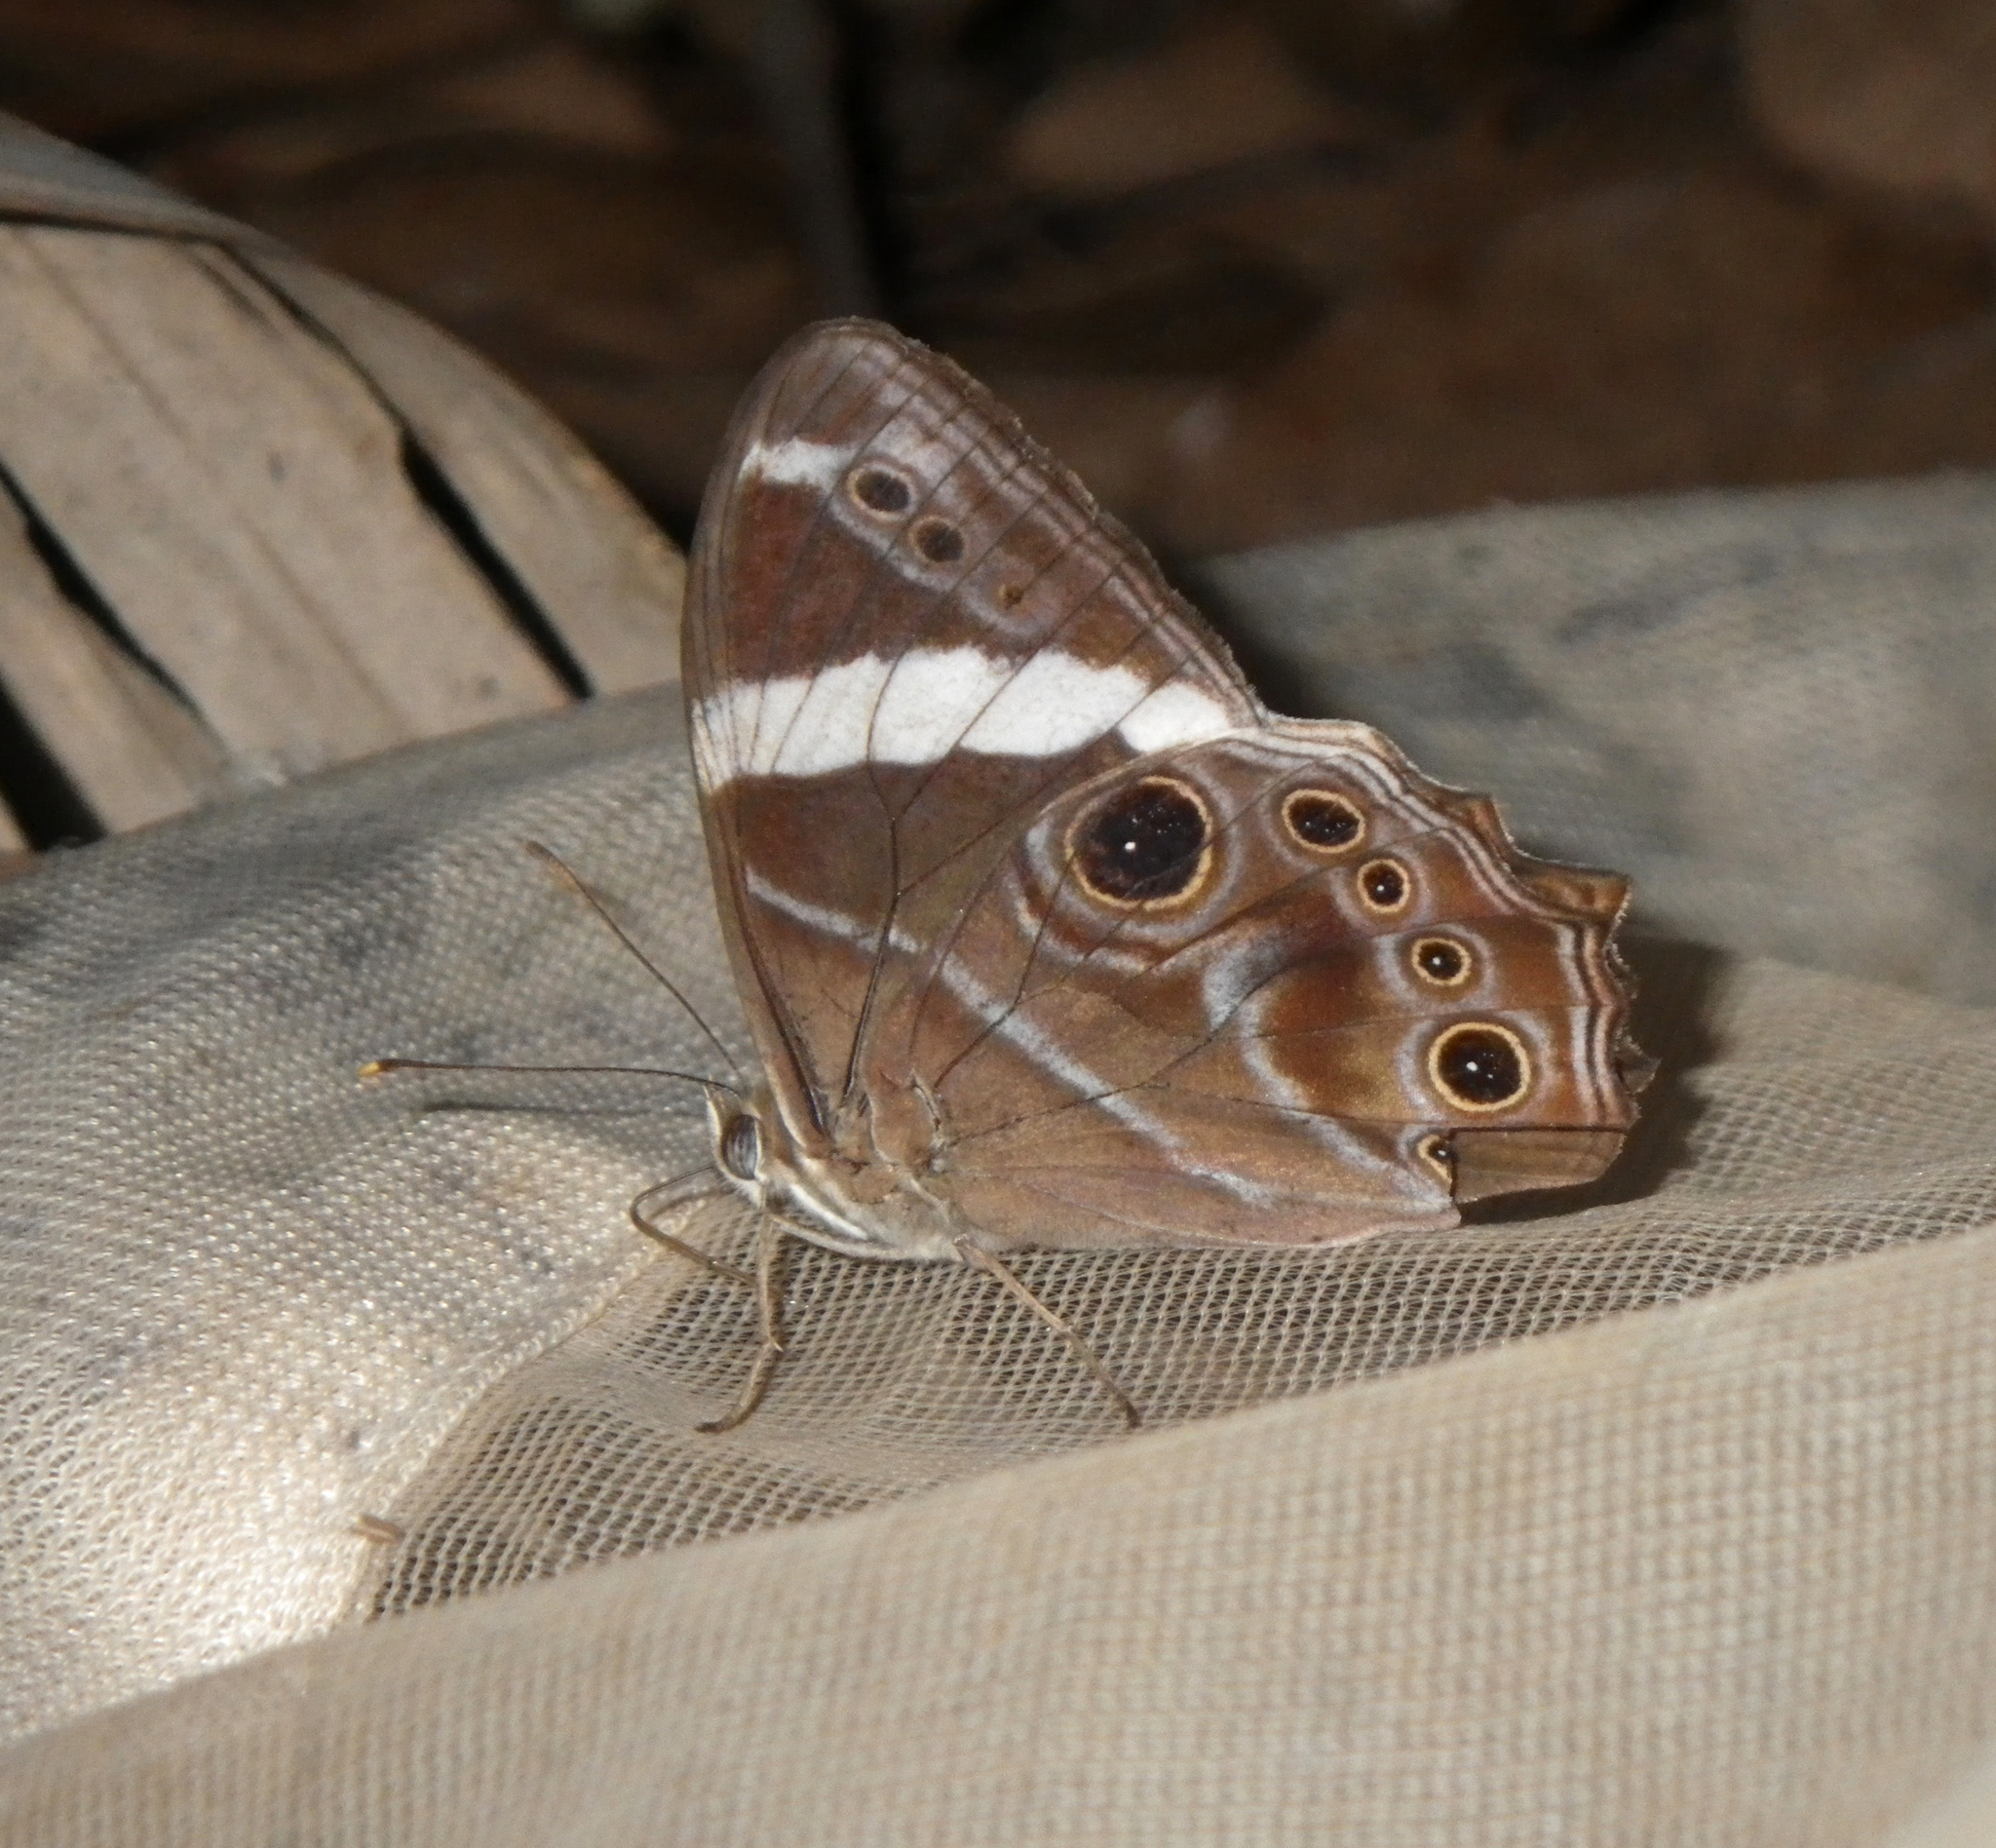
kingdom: Animalia
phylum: Arthropoda
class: Insecta
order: Lepidoptera
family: Nymphalidae
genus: Lethe
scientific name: Lethe confusa
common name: Banded treebrown
